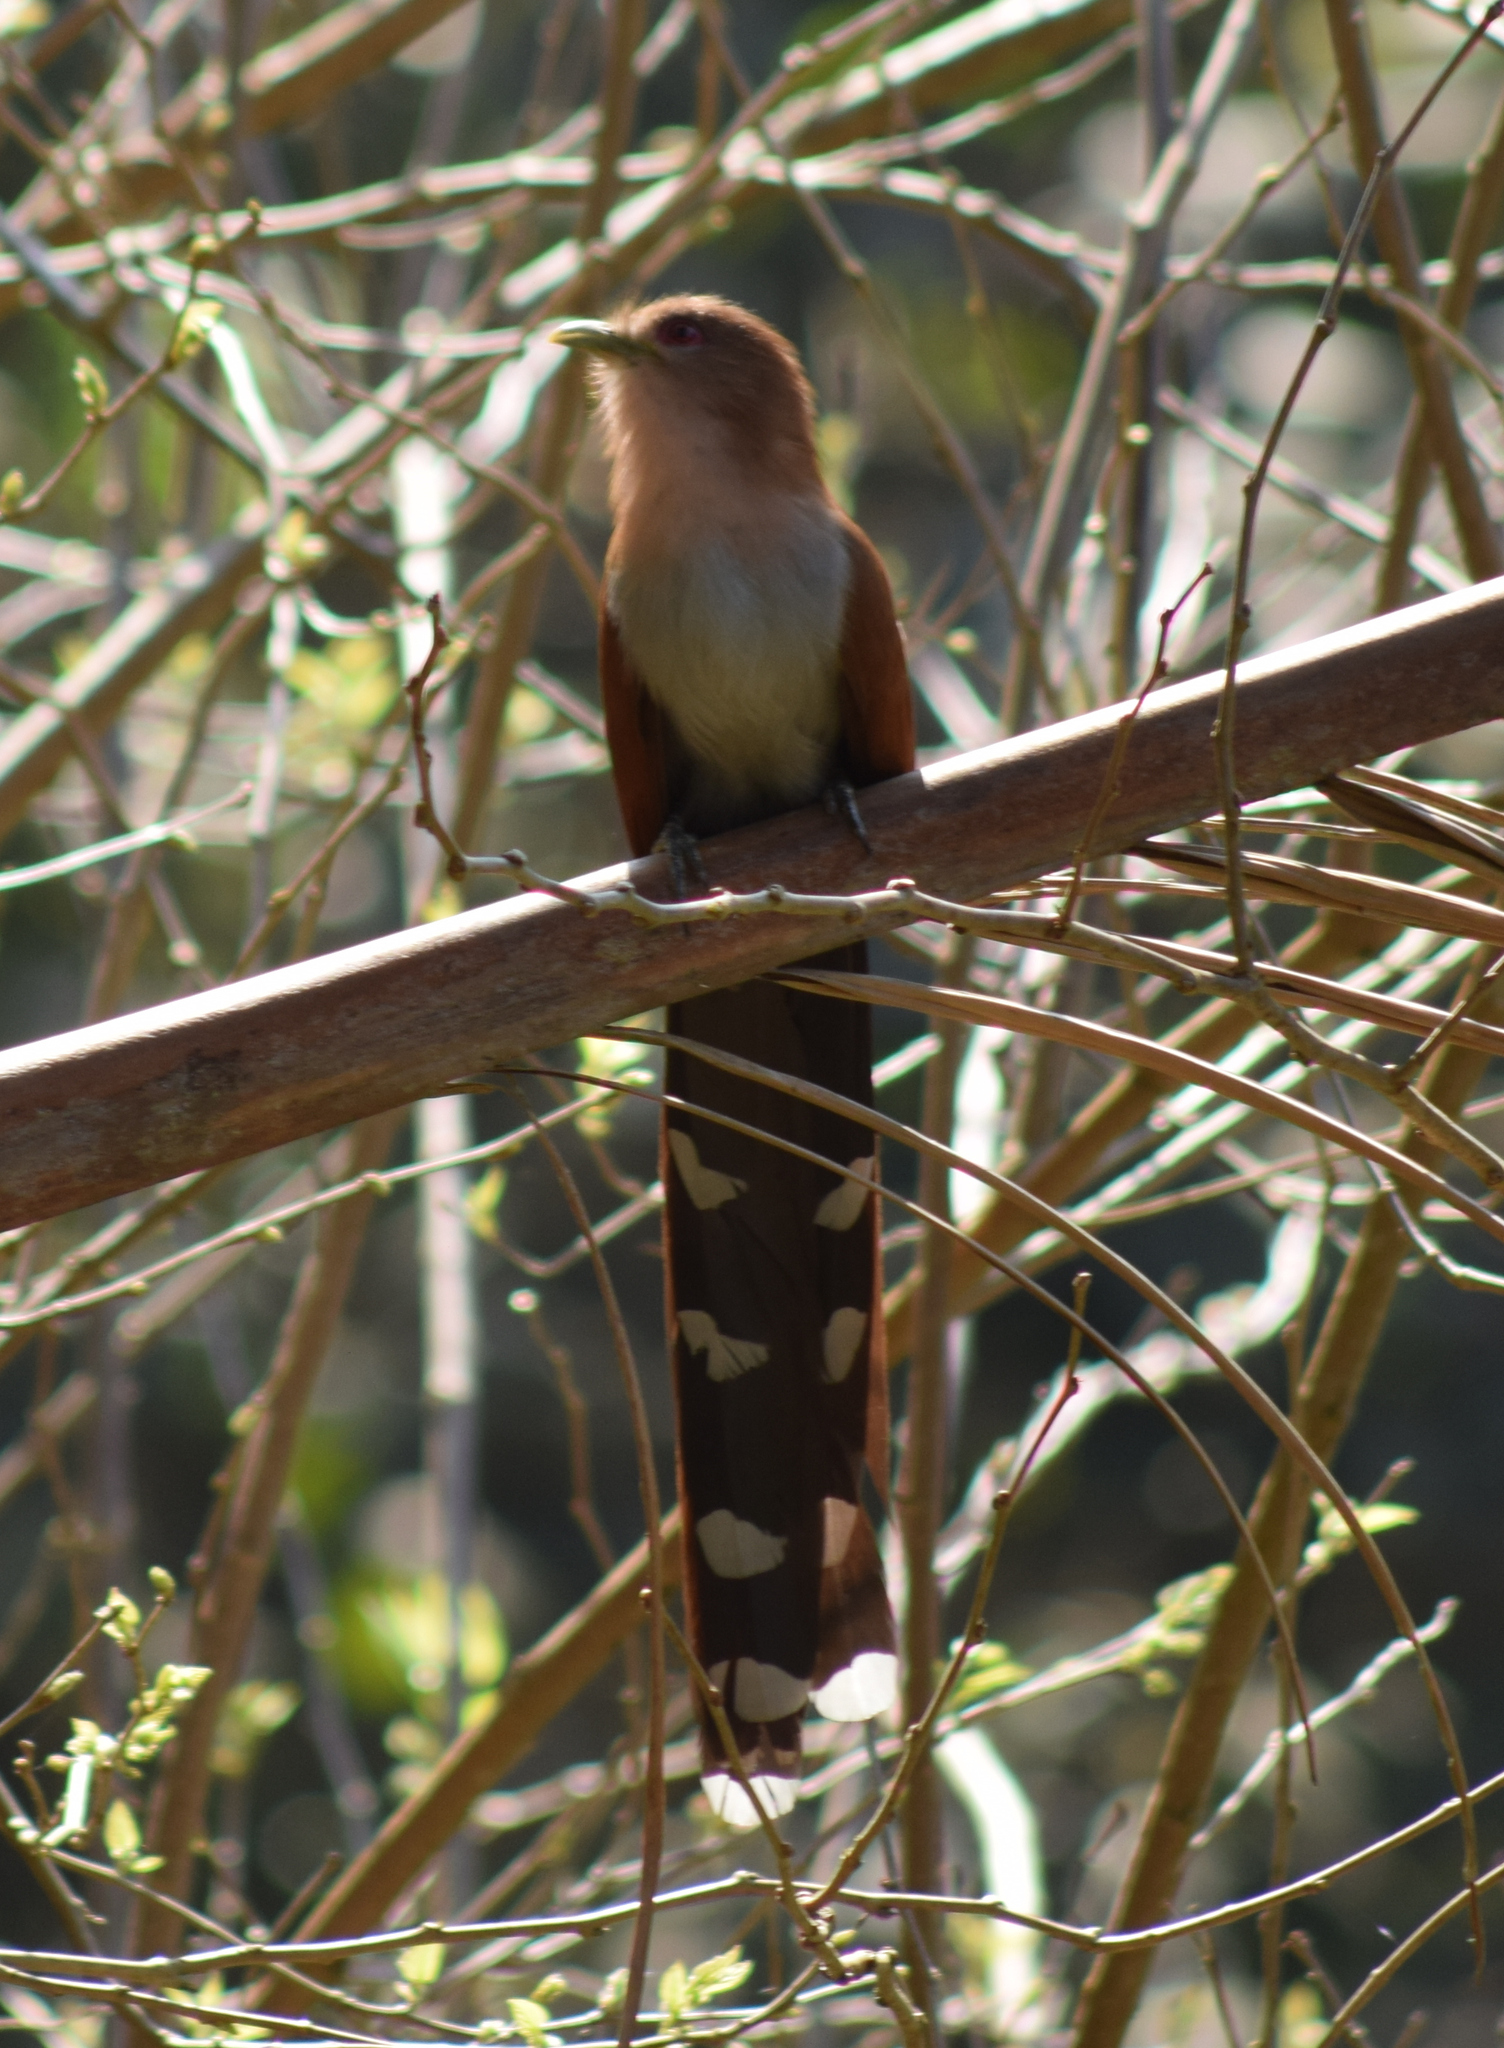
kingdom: Animalia
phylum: Chordata
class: Aves
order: Cuculiformes
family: Cuculidae
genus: Piaya
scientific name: Piaya cayana
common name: Squirrel cuckoo
